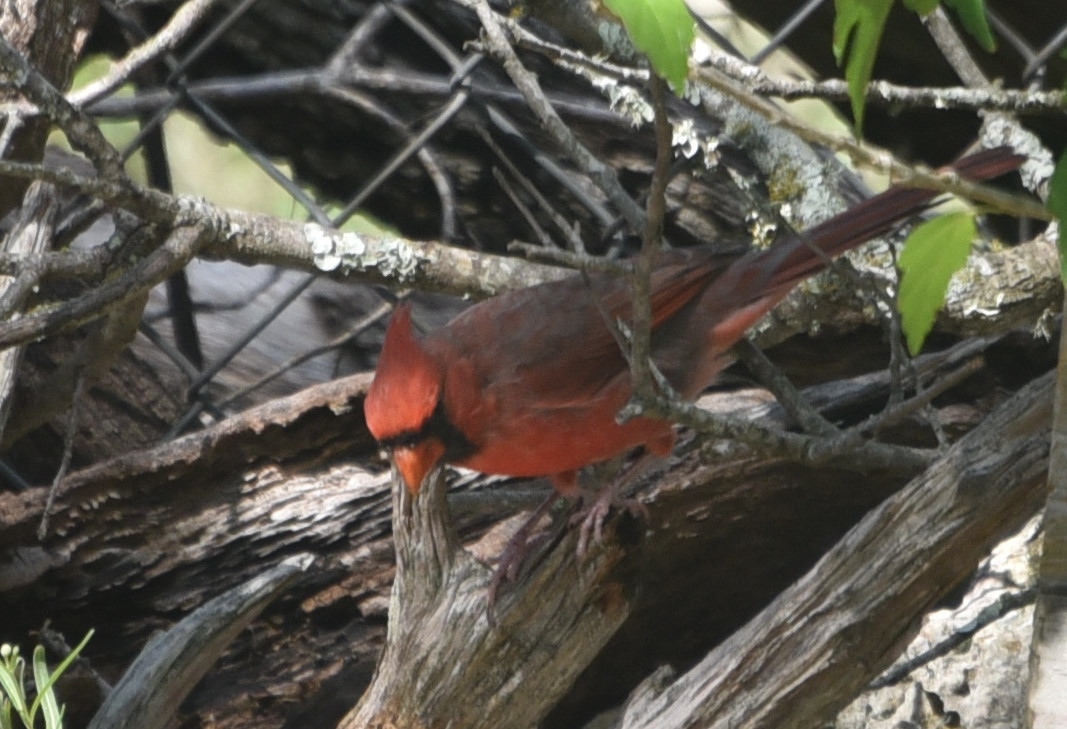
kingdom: Animalia
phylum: Chordata
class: Aves
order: Passeriformes
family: Cardinalidae
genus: Cardinalis
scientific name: Cardinalis cardinalis
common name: Northern cardinal
